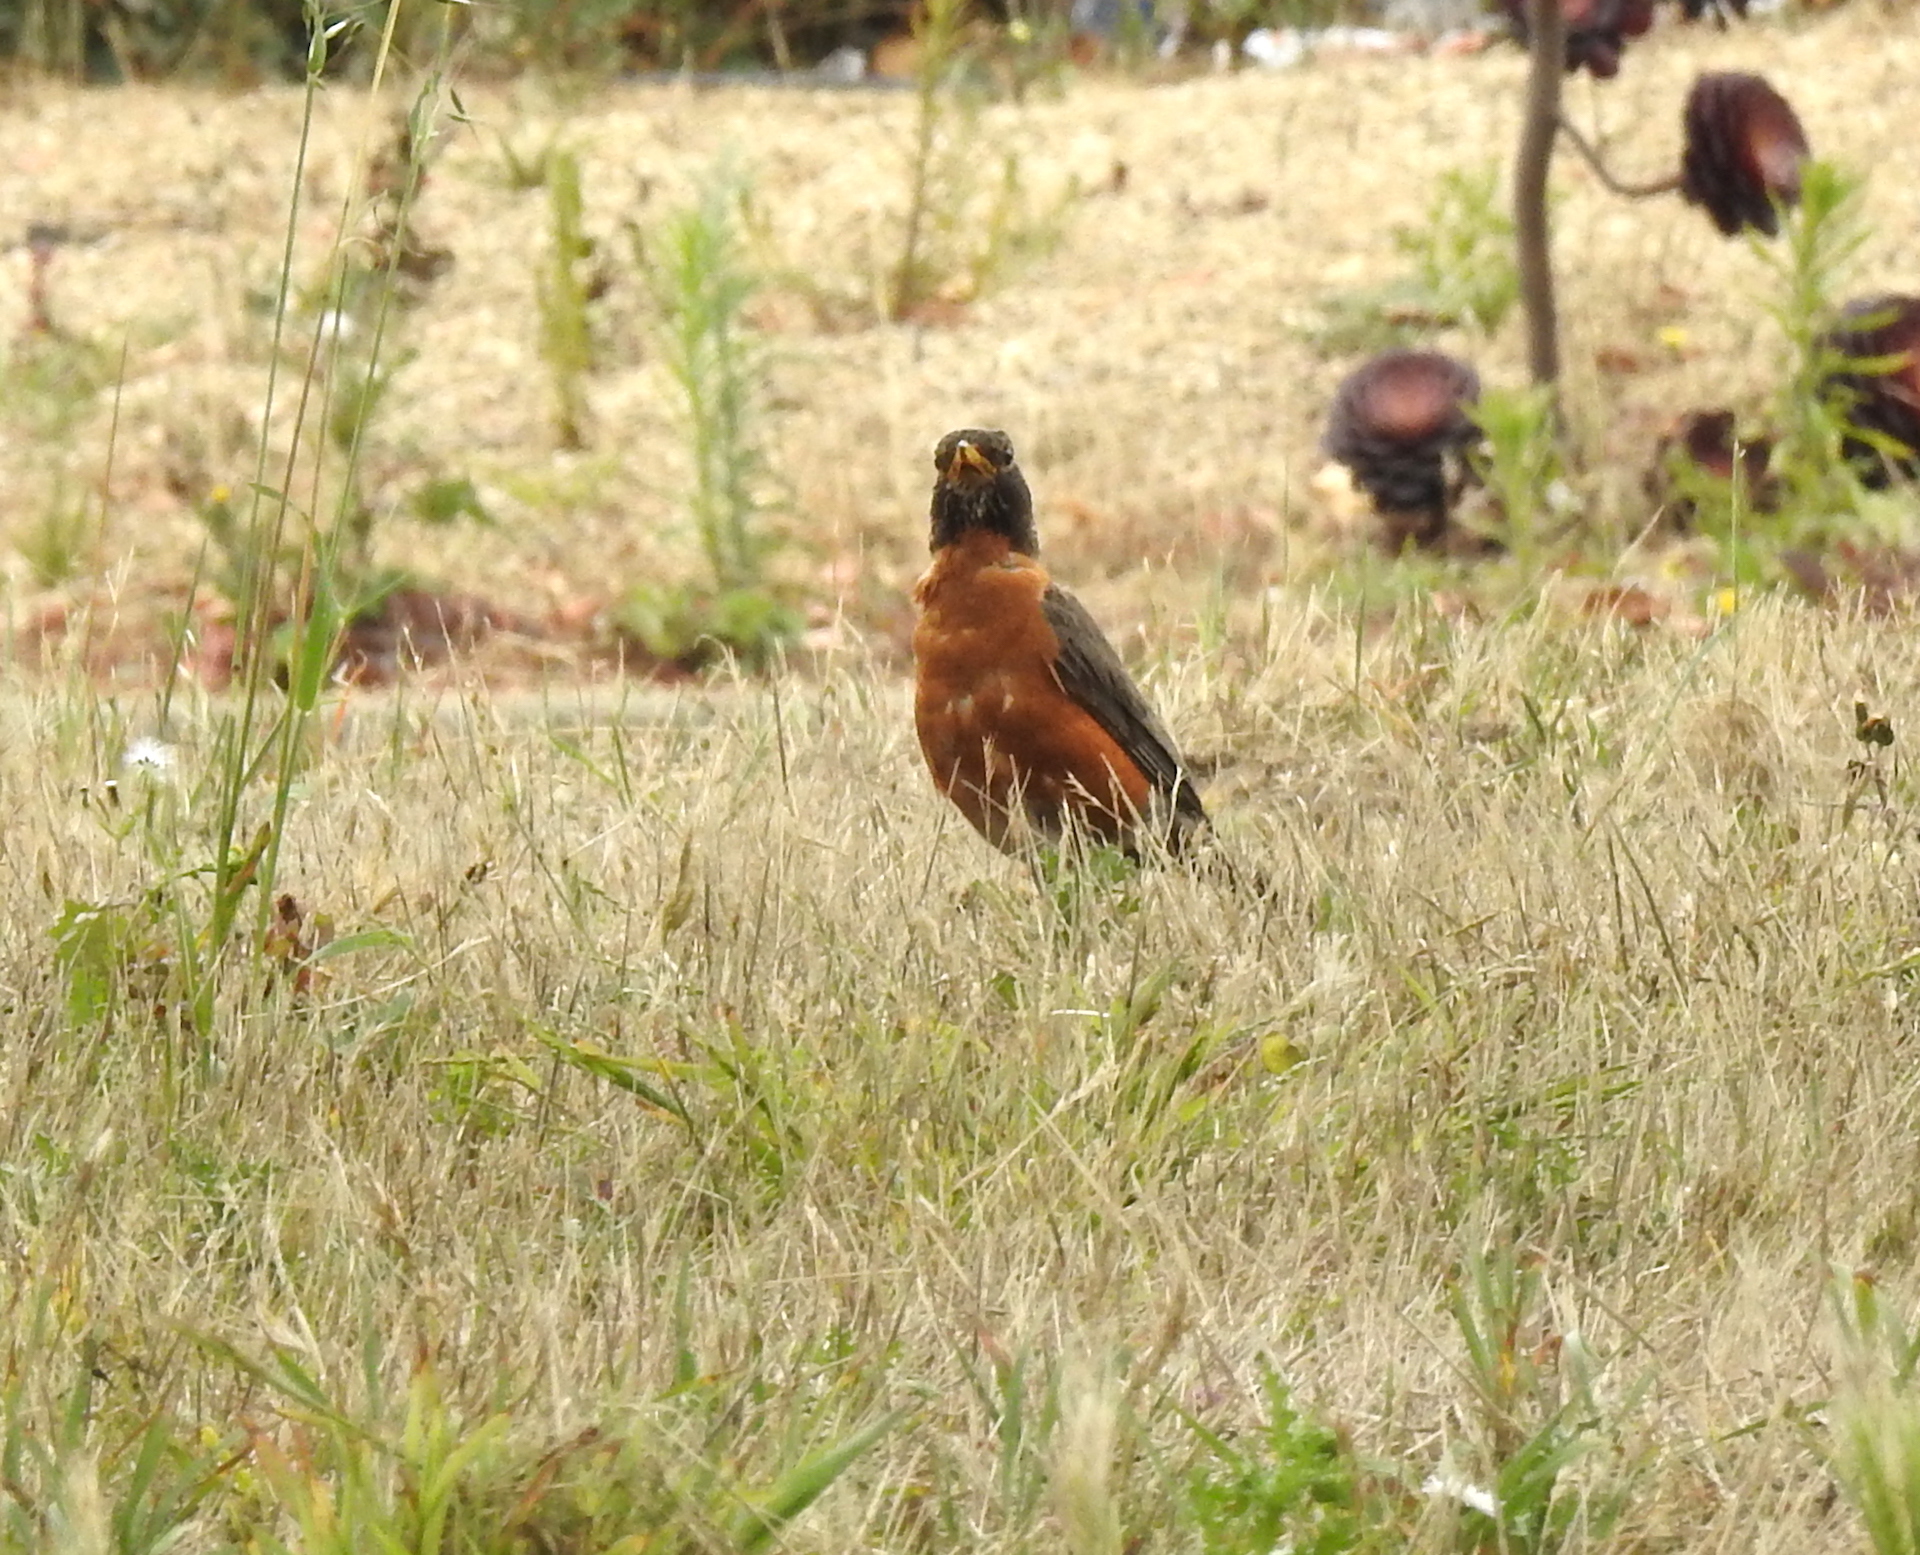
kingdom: Animalia
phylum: Chordata
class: Aves
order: Passeriformes
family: Turdidae
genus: Turdus
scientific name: Turdus migratorius
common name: American robin
